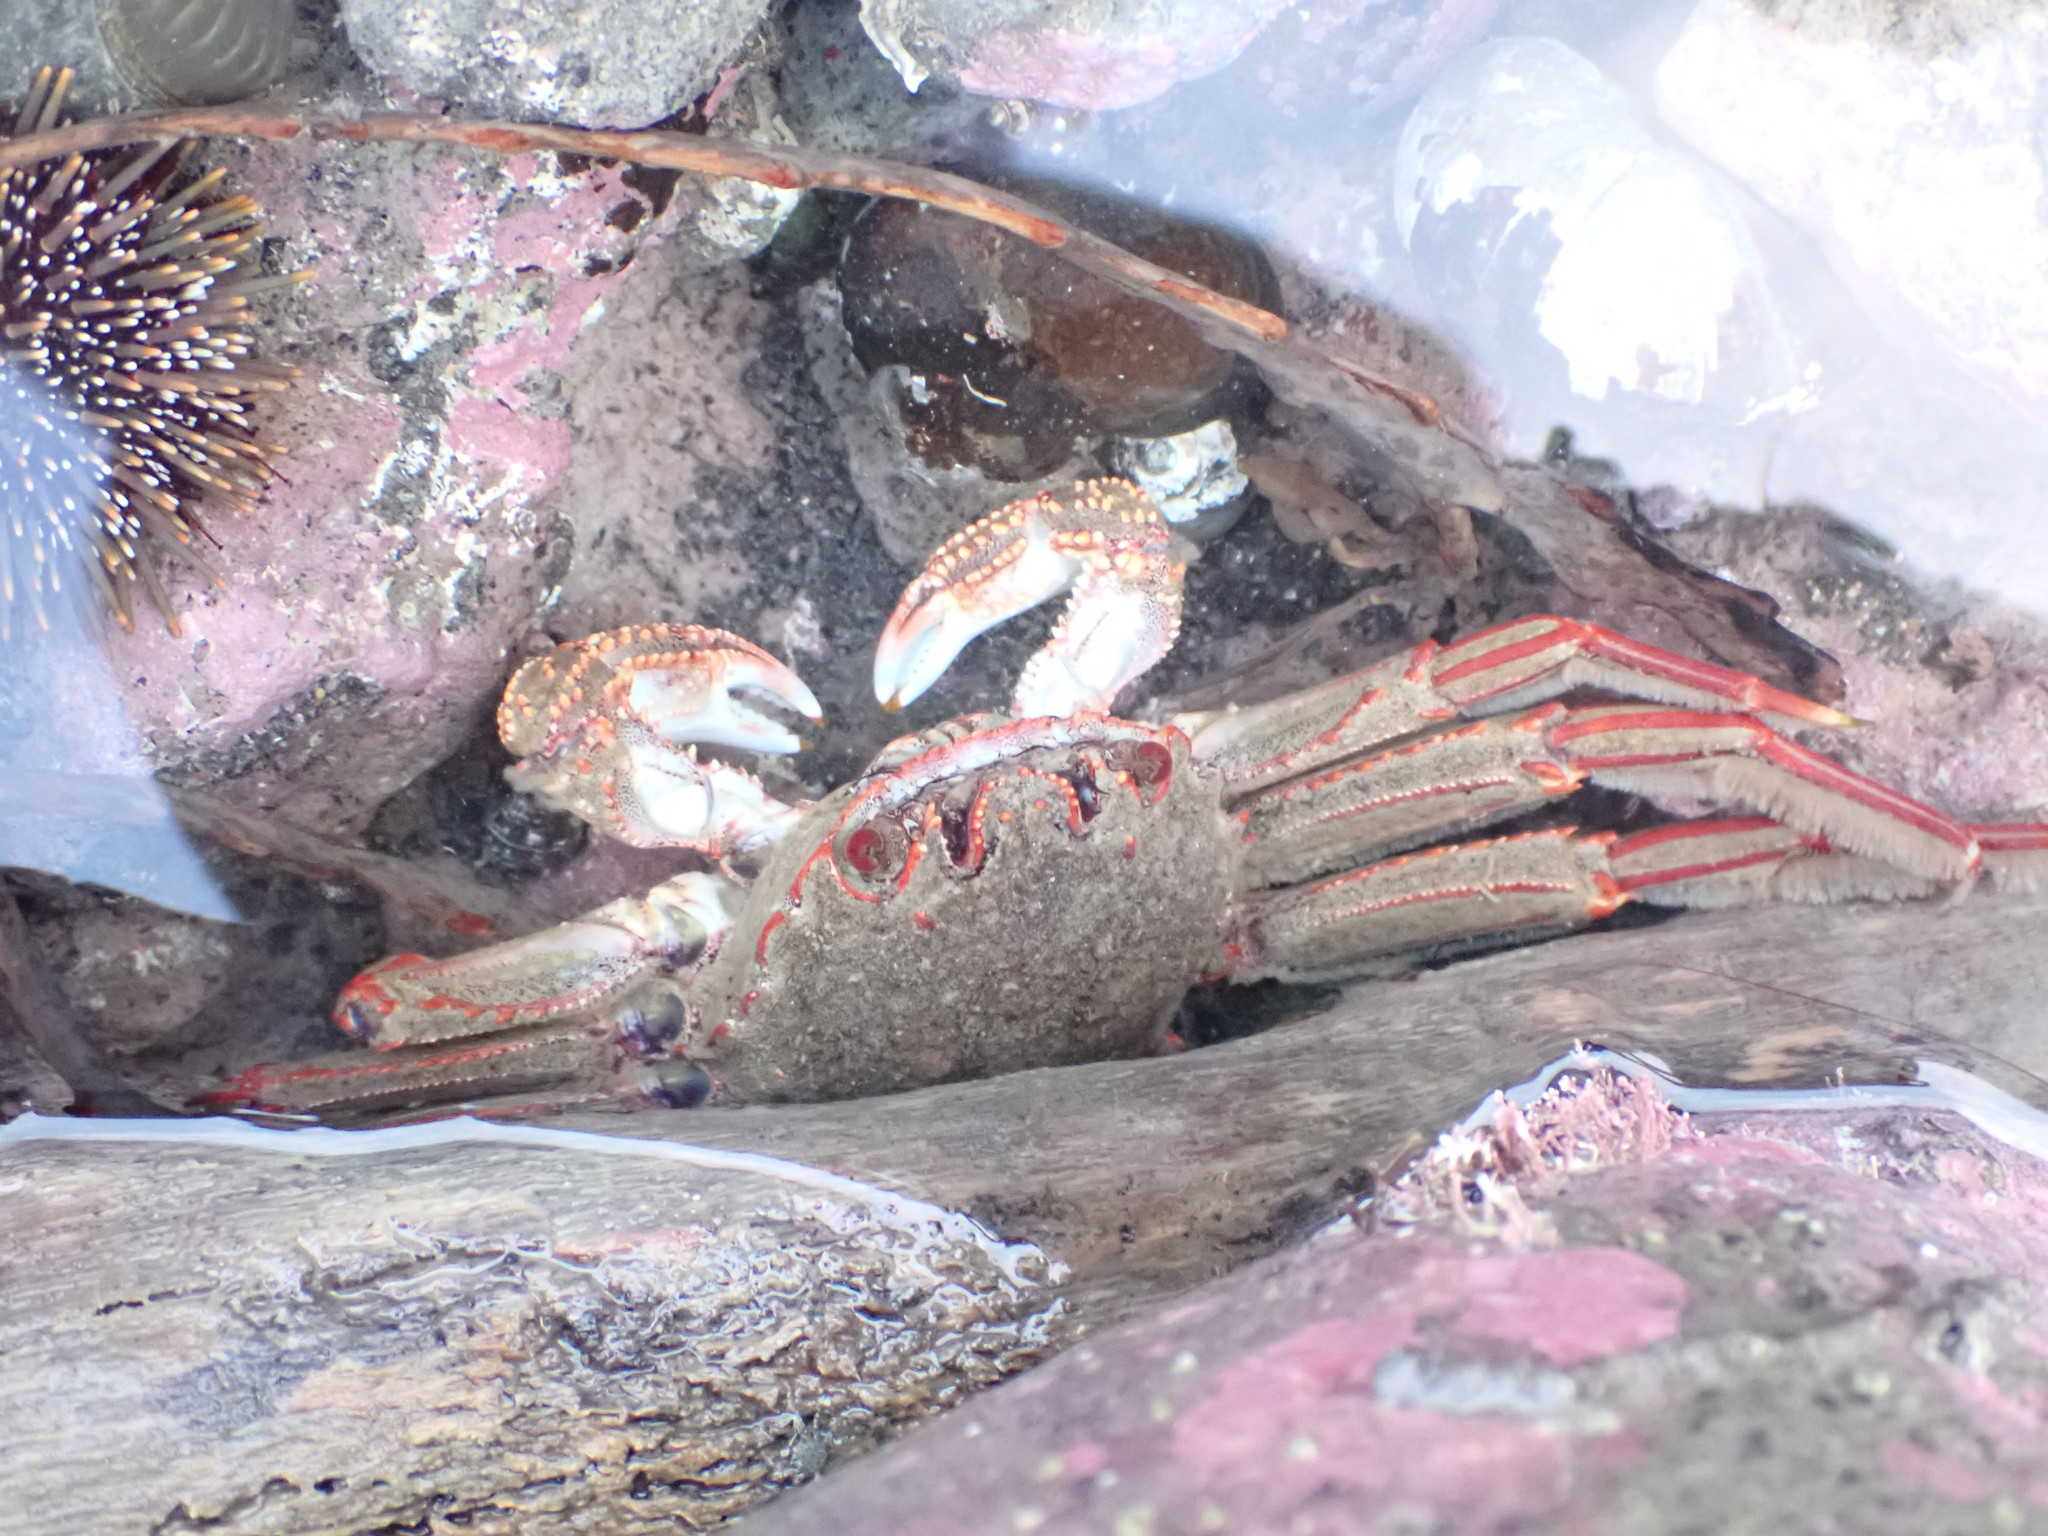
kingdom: Animalia
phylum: Arthropoda
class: Malacostraca
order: Decapoda
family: Plagusiidae
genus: Guinusia
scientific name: Guinusia chabrus
